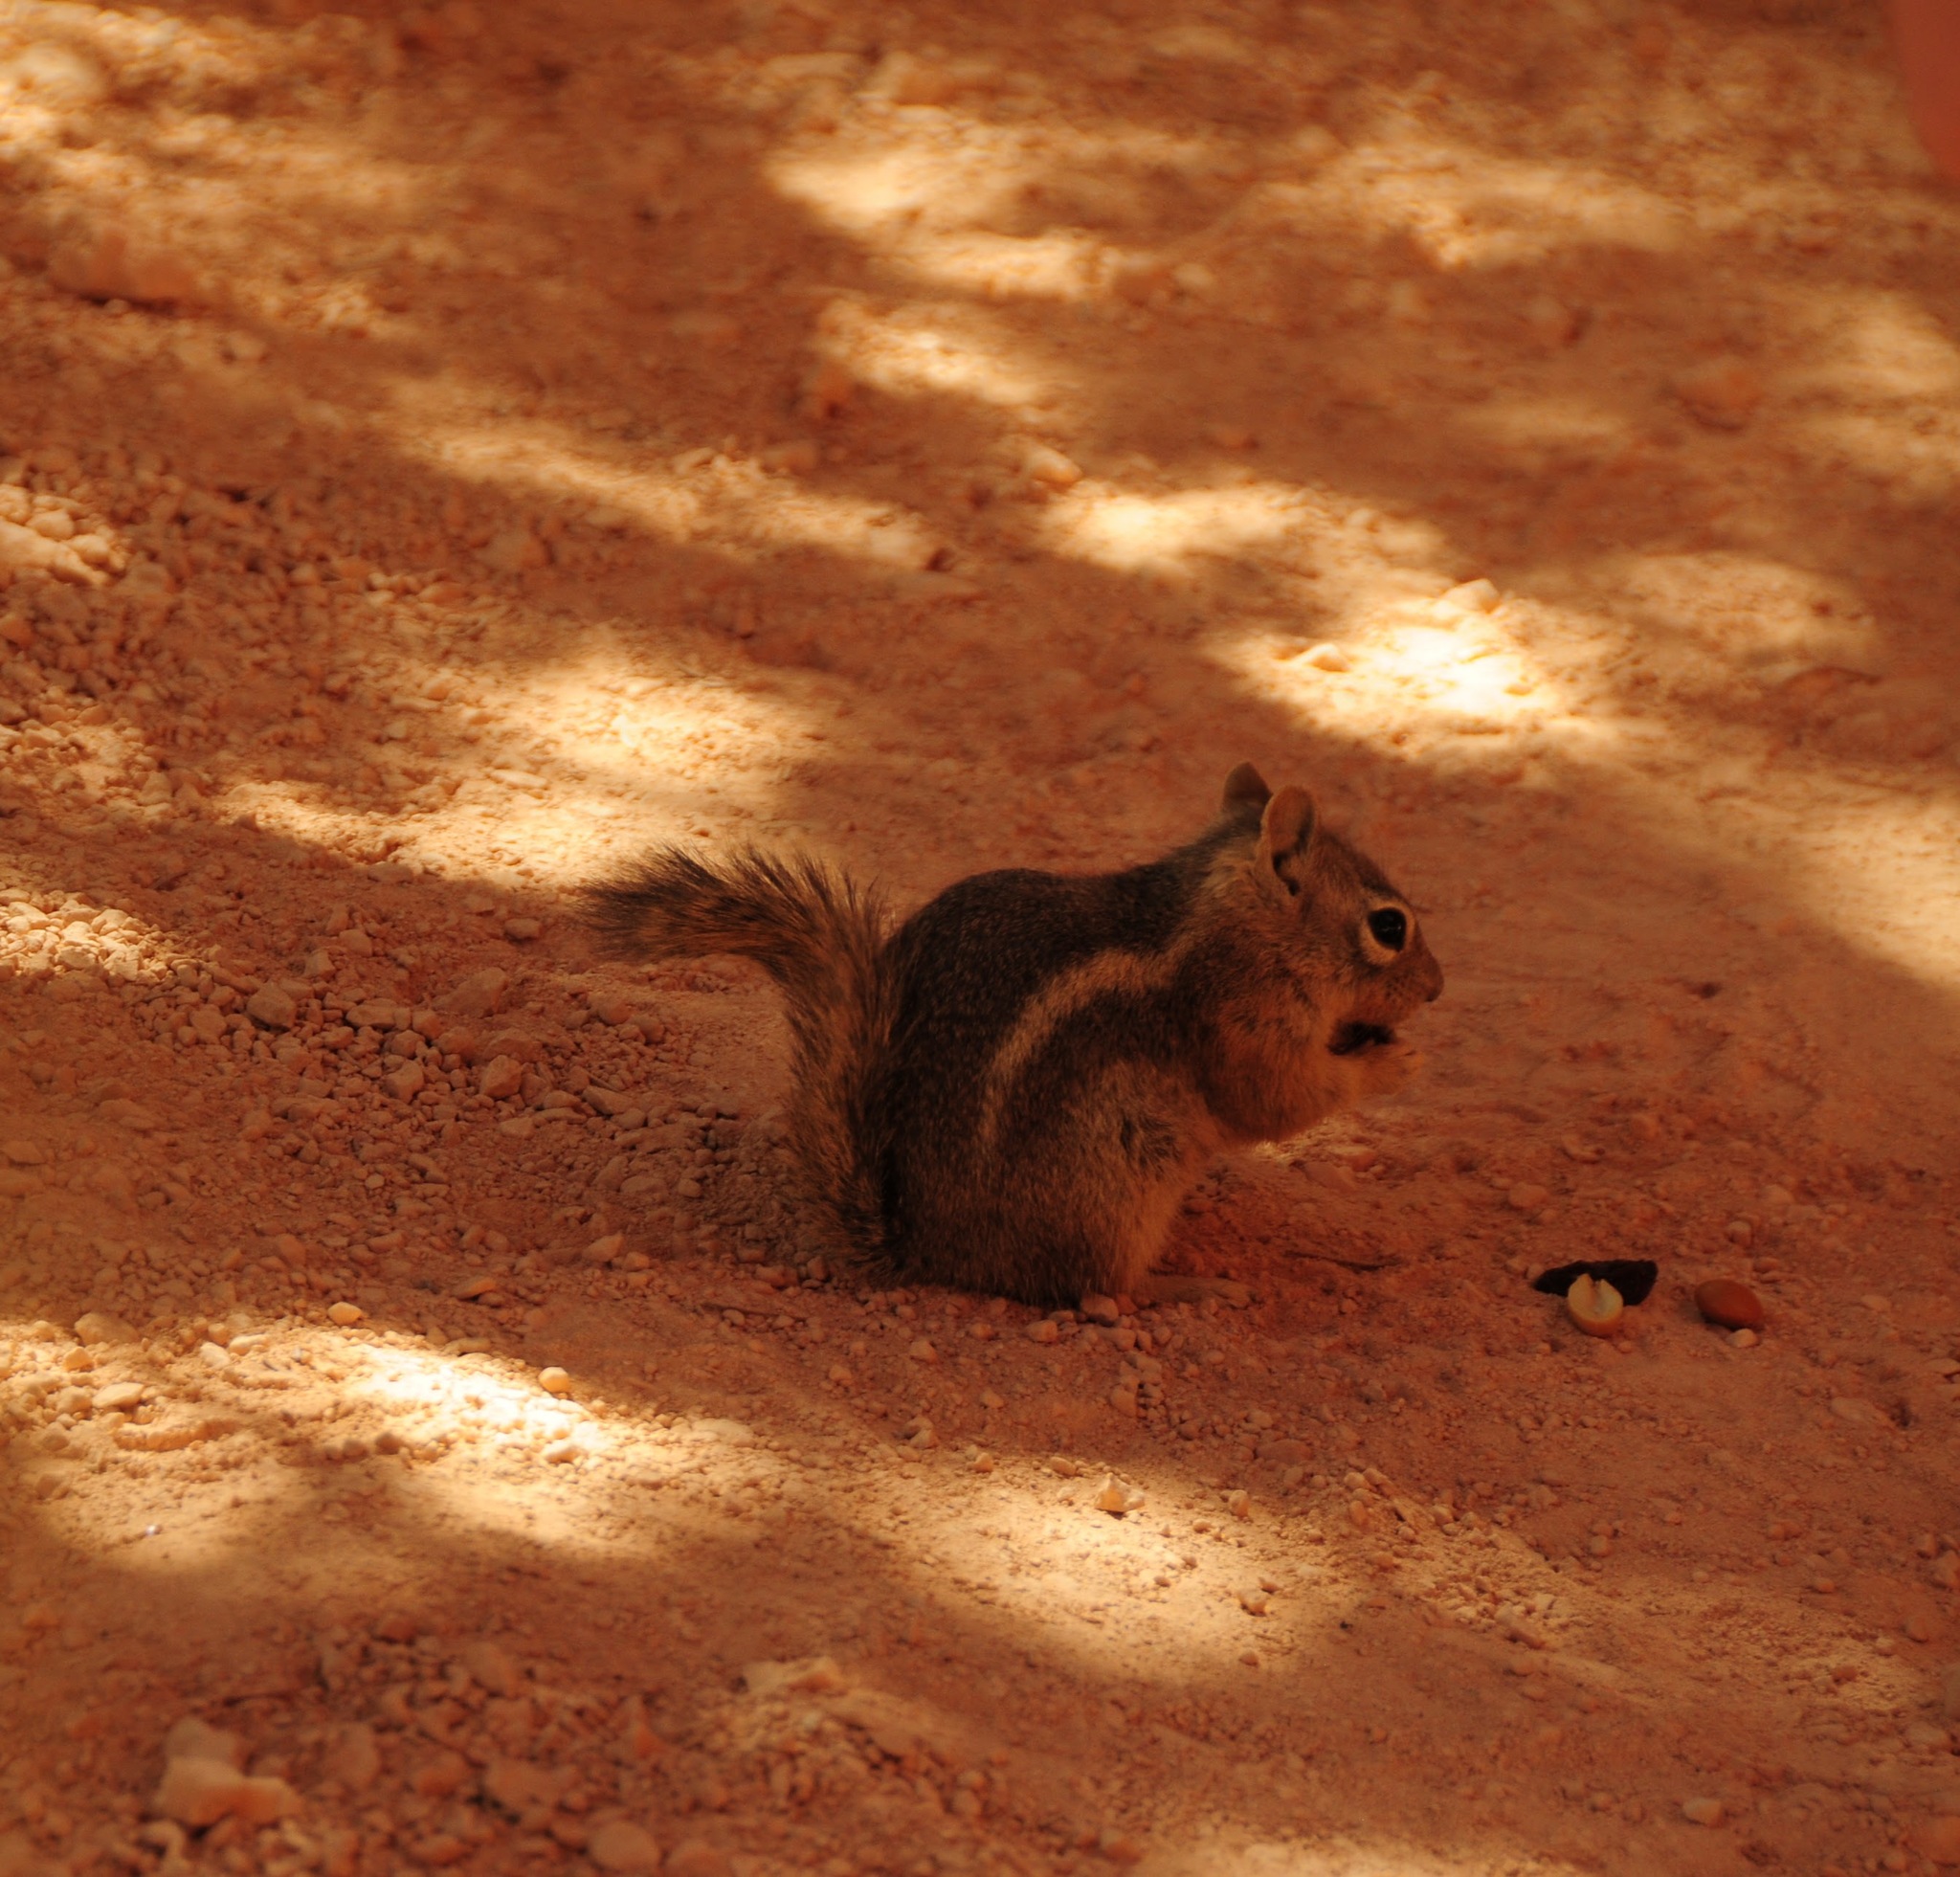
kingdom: Animalia
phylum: Chordata
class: Mammalia
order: Rodentia
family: Sciuridae
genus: Callospermophilus
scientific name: Callospermophilus lateralis
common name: Golden-mantled ground squirrel
